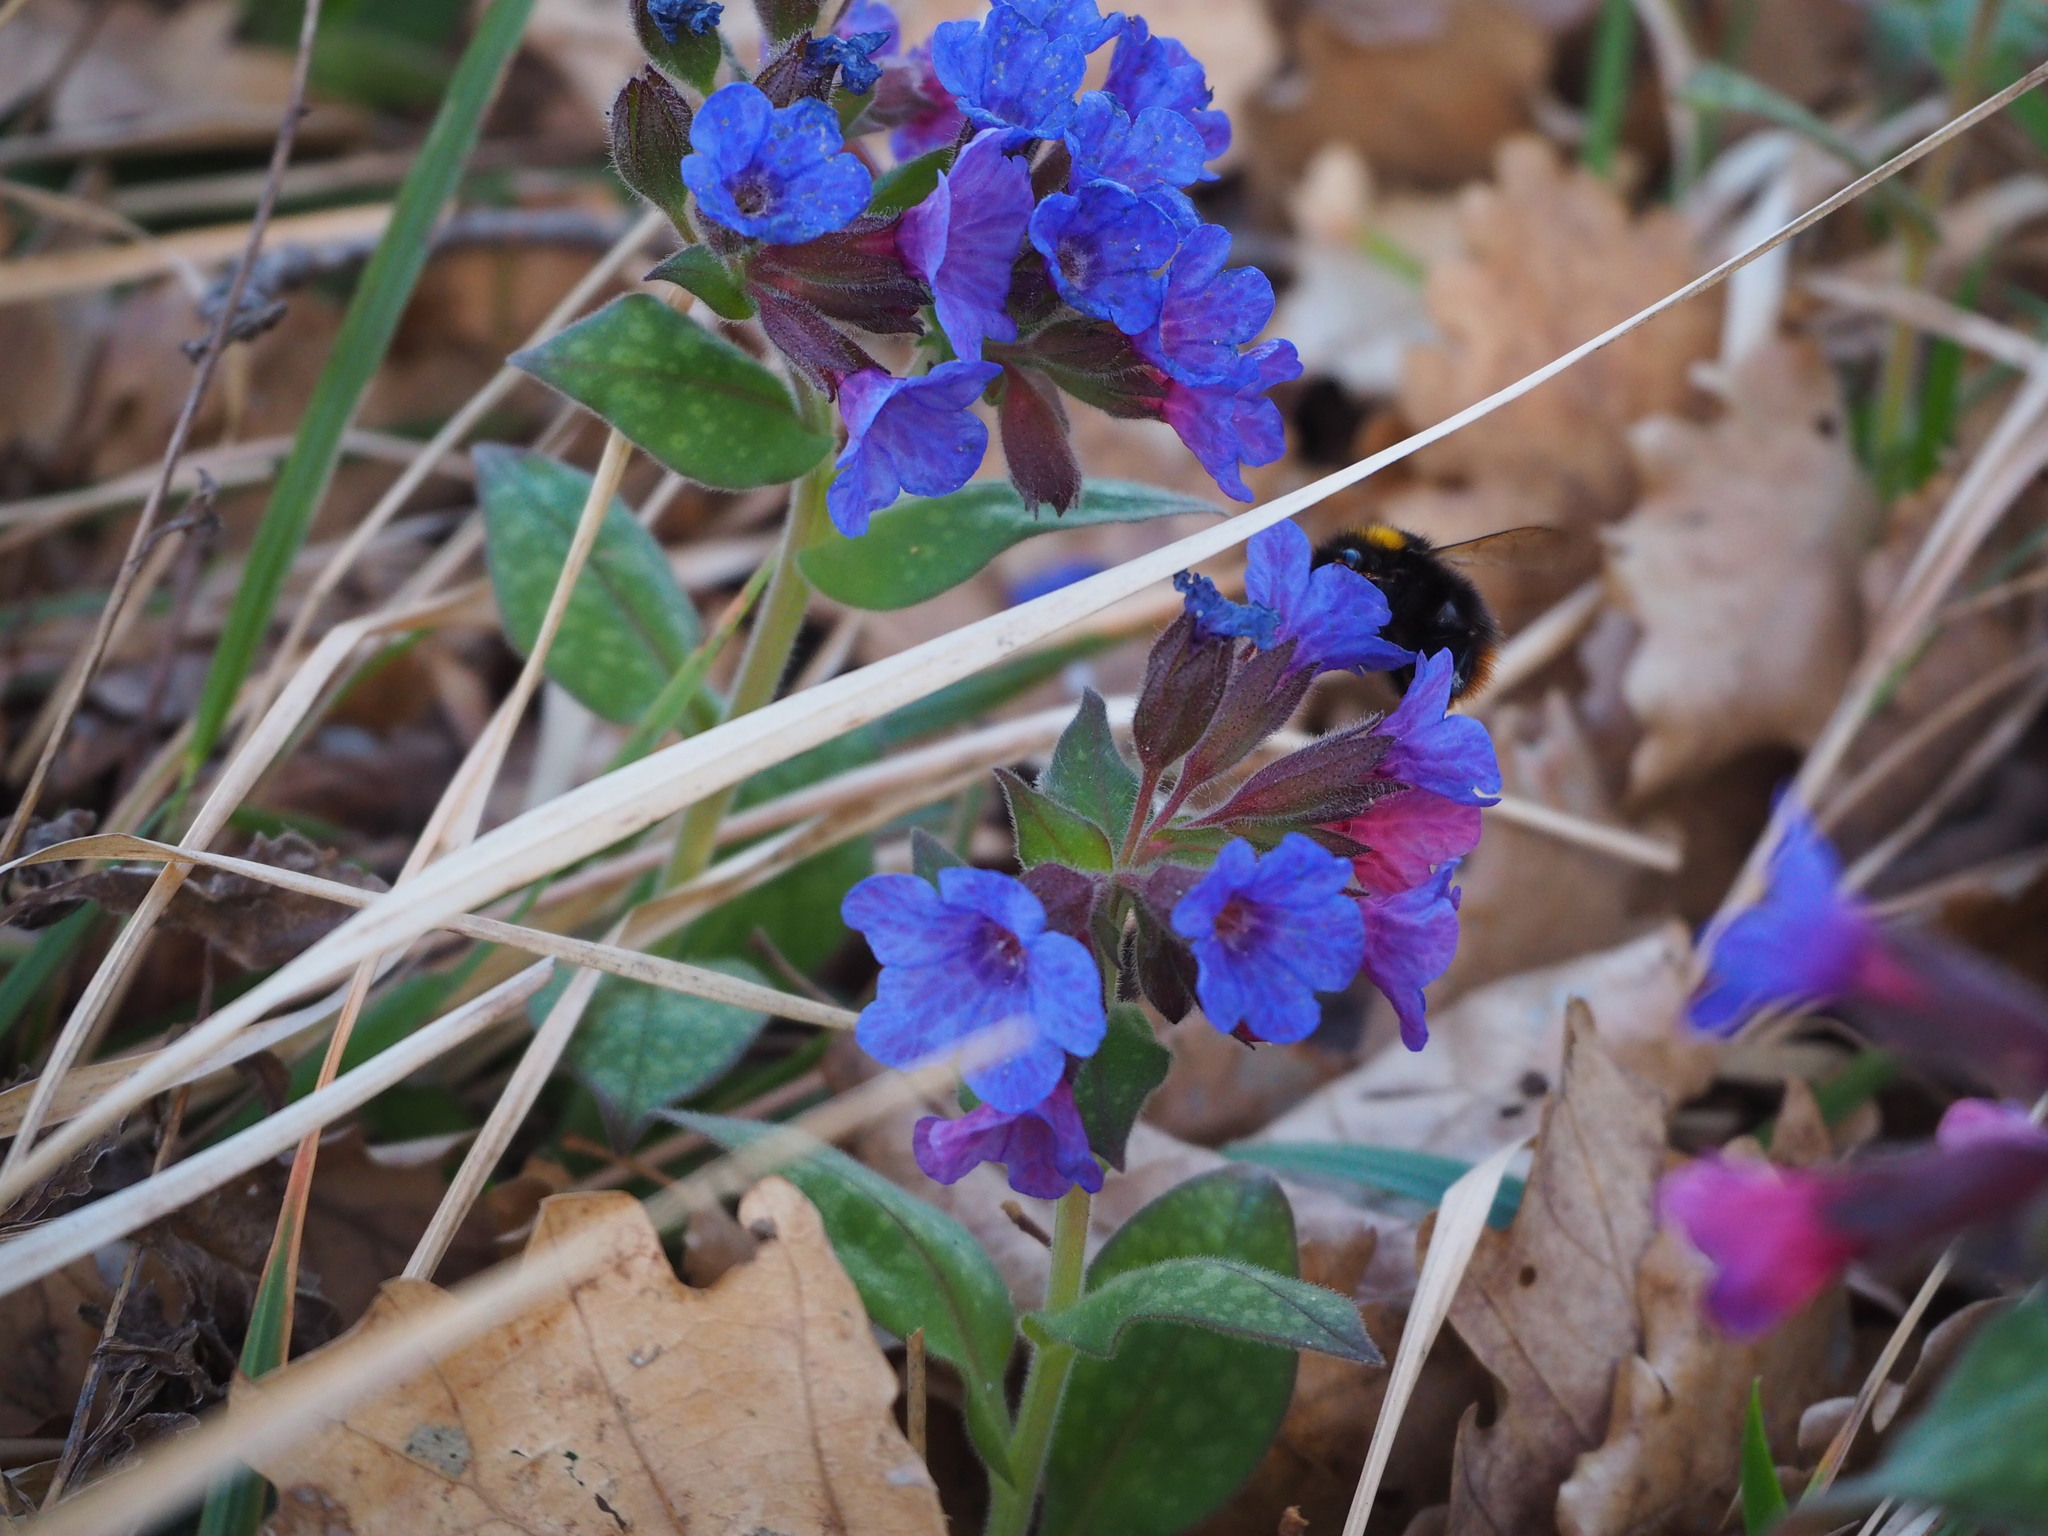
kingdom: Animalia
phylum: Arthropoda
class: Insecta
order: Hymenoptera
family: Apidae
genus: Bombus
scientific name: Bombus pratorum
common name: Early humble-bee
